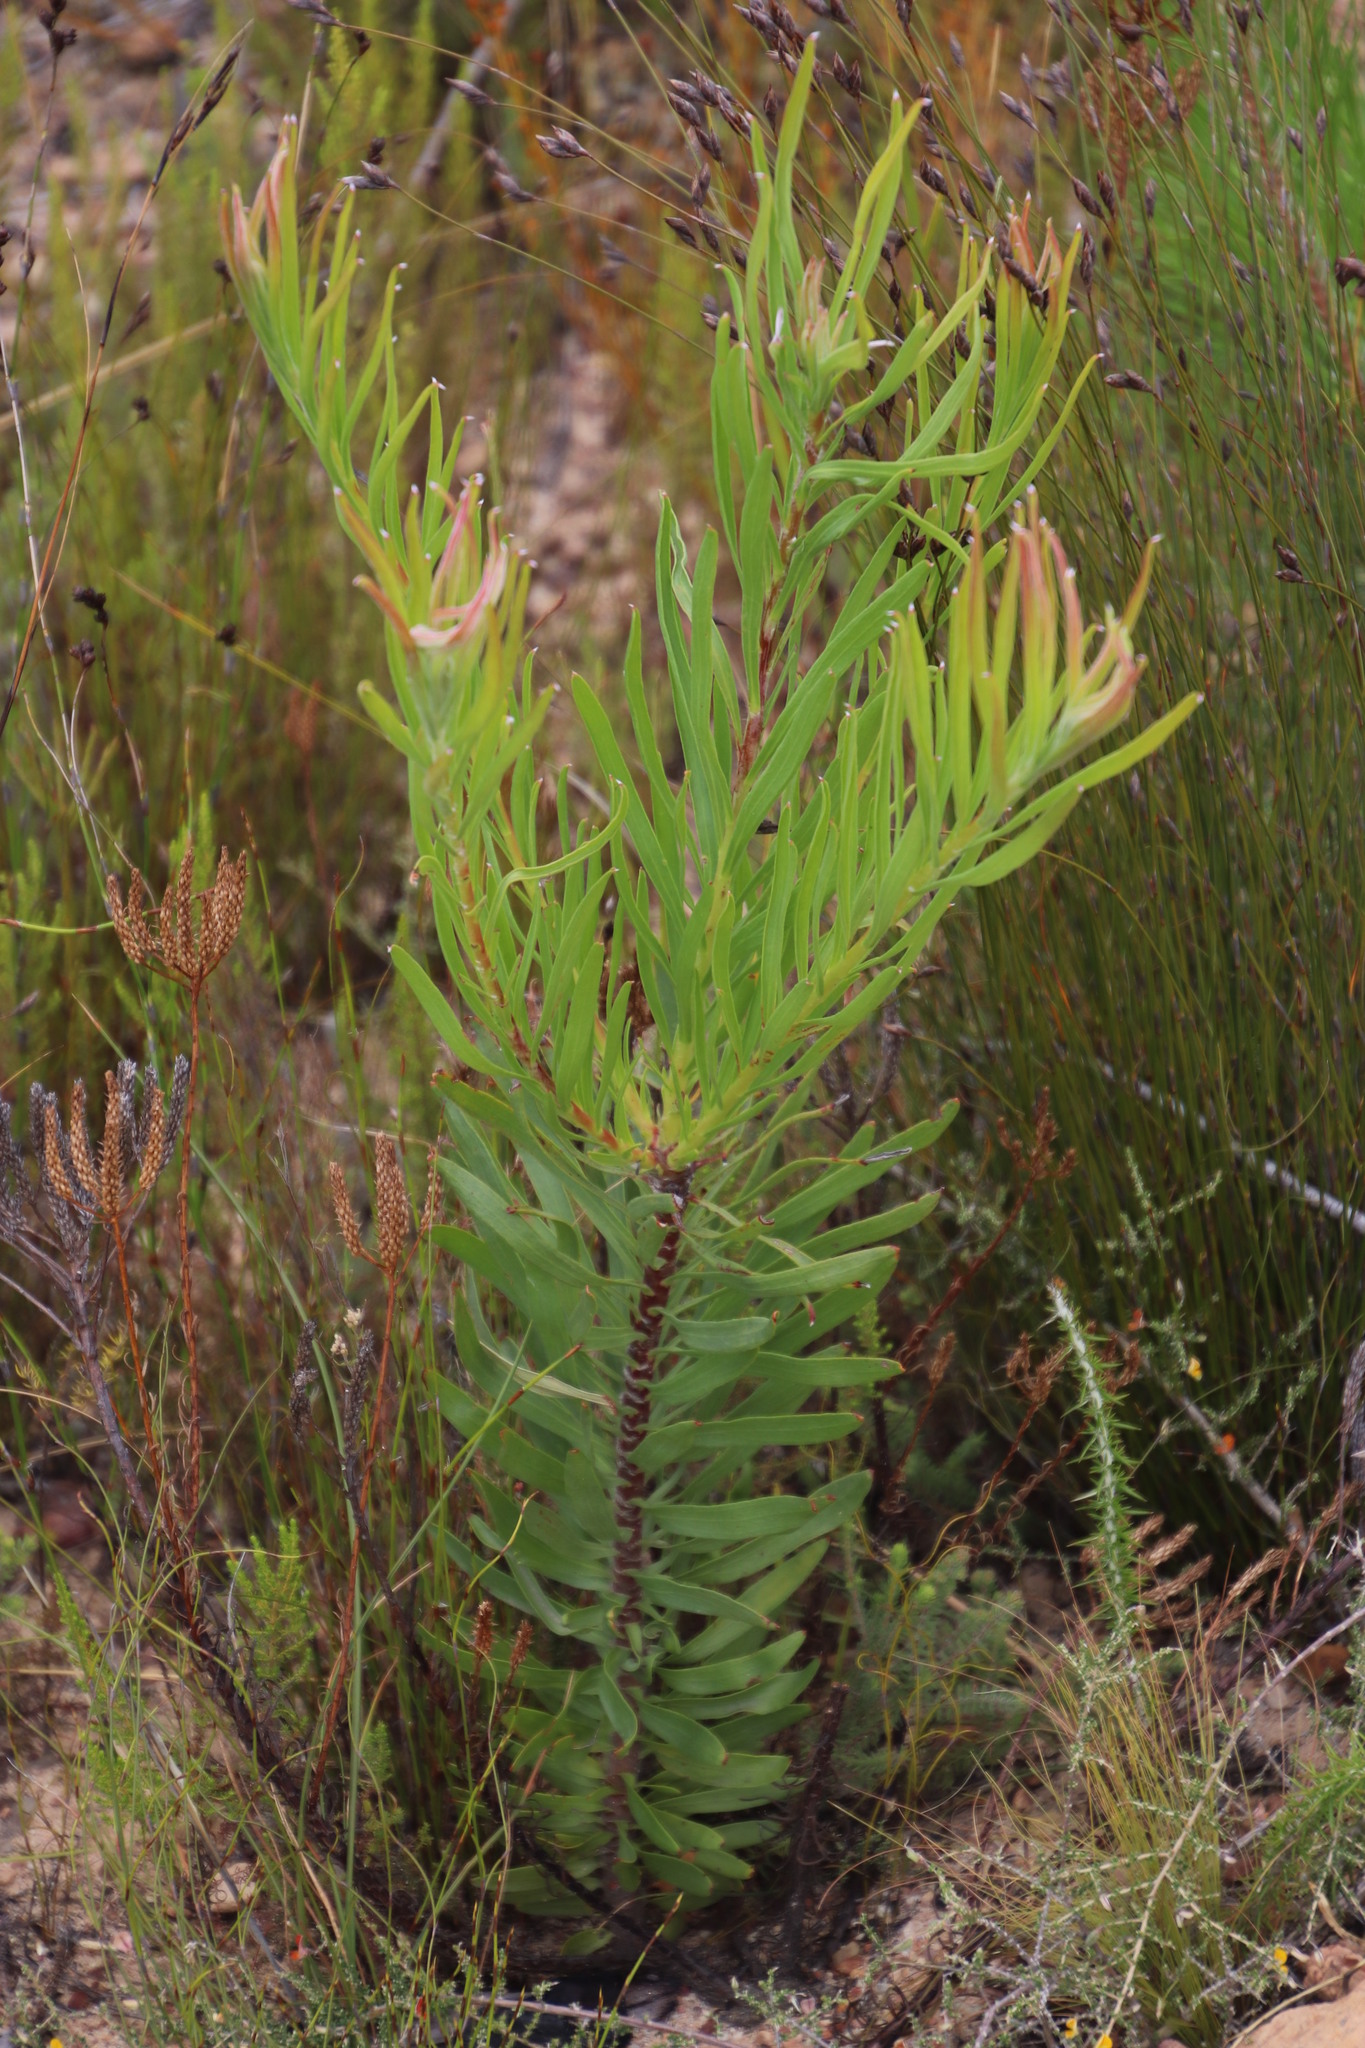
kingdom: Plantae
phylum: Tracheophyta
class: Magnoliopsida
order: Proteales
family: Proteaceae
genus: Leucospermum
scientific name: Leucospermum lineare
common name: Needle-leaf pincushion
